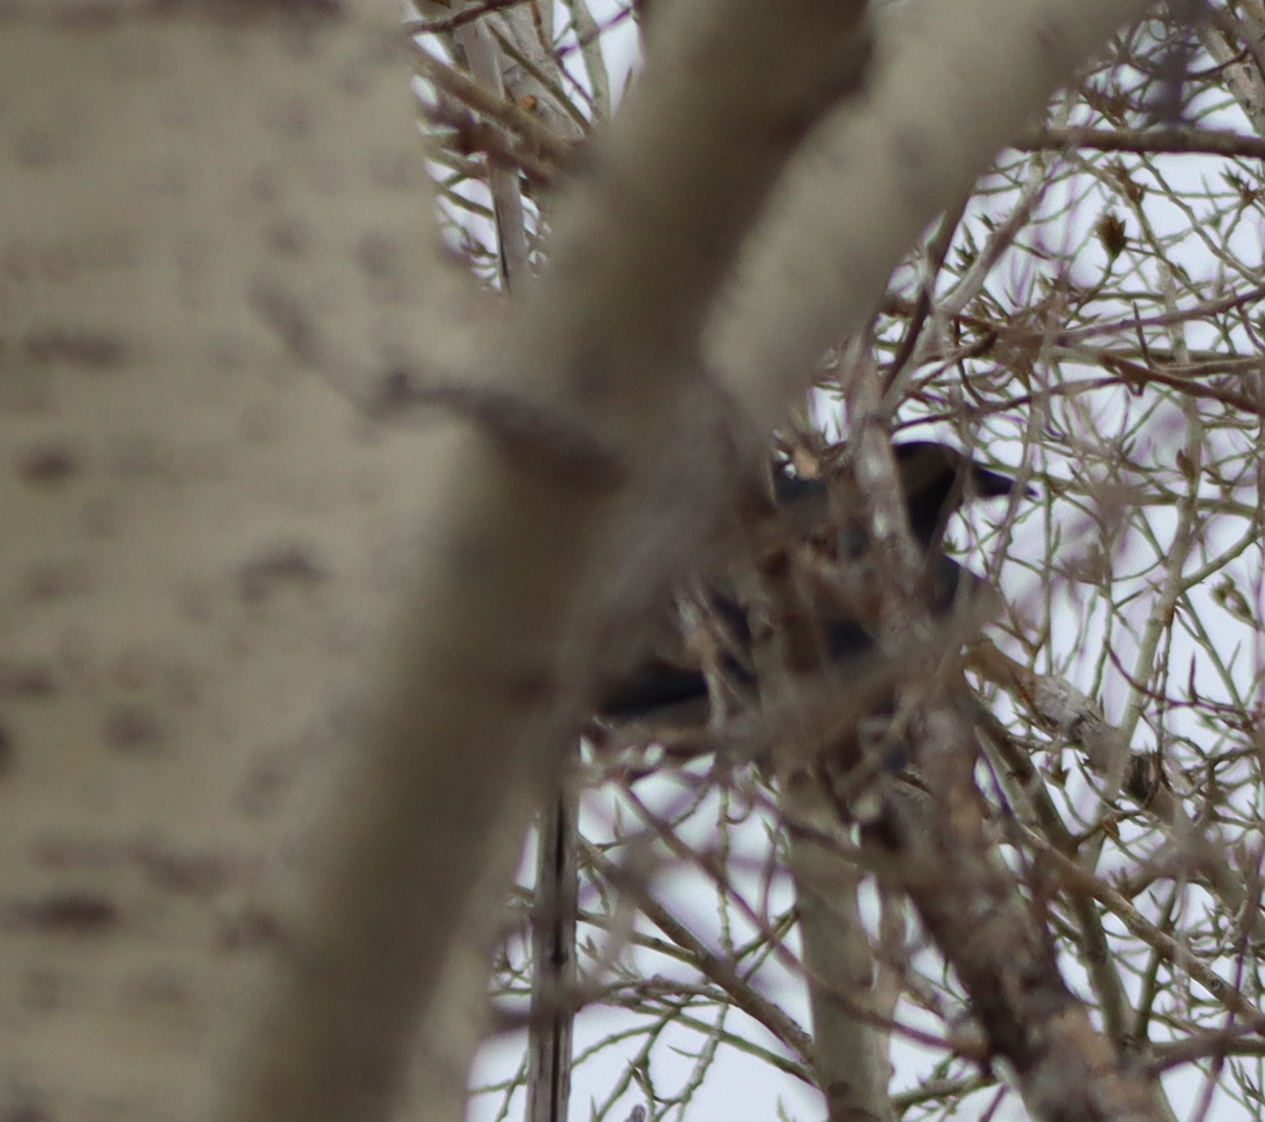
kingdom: Animalia
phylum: Chordata
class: Aves
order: Passeriformes
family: Corvidae
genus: Corvus
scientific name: Corvus brachyrhynchos
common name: American crow
